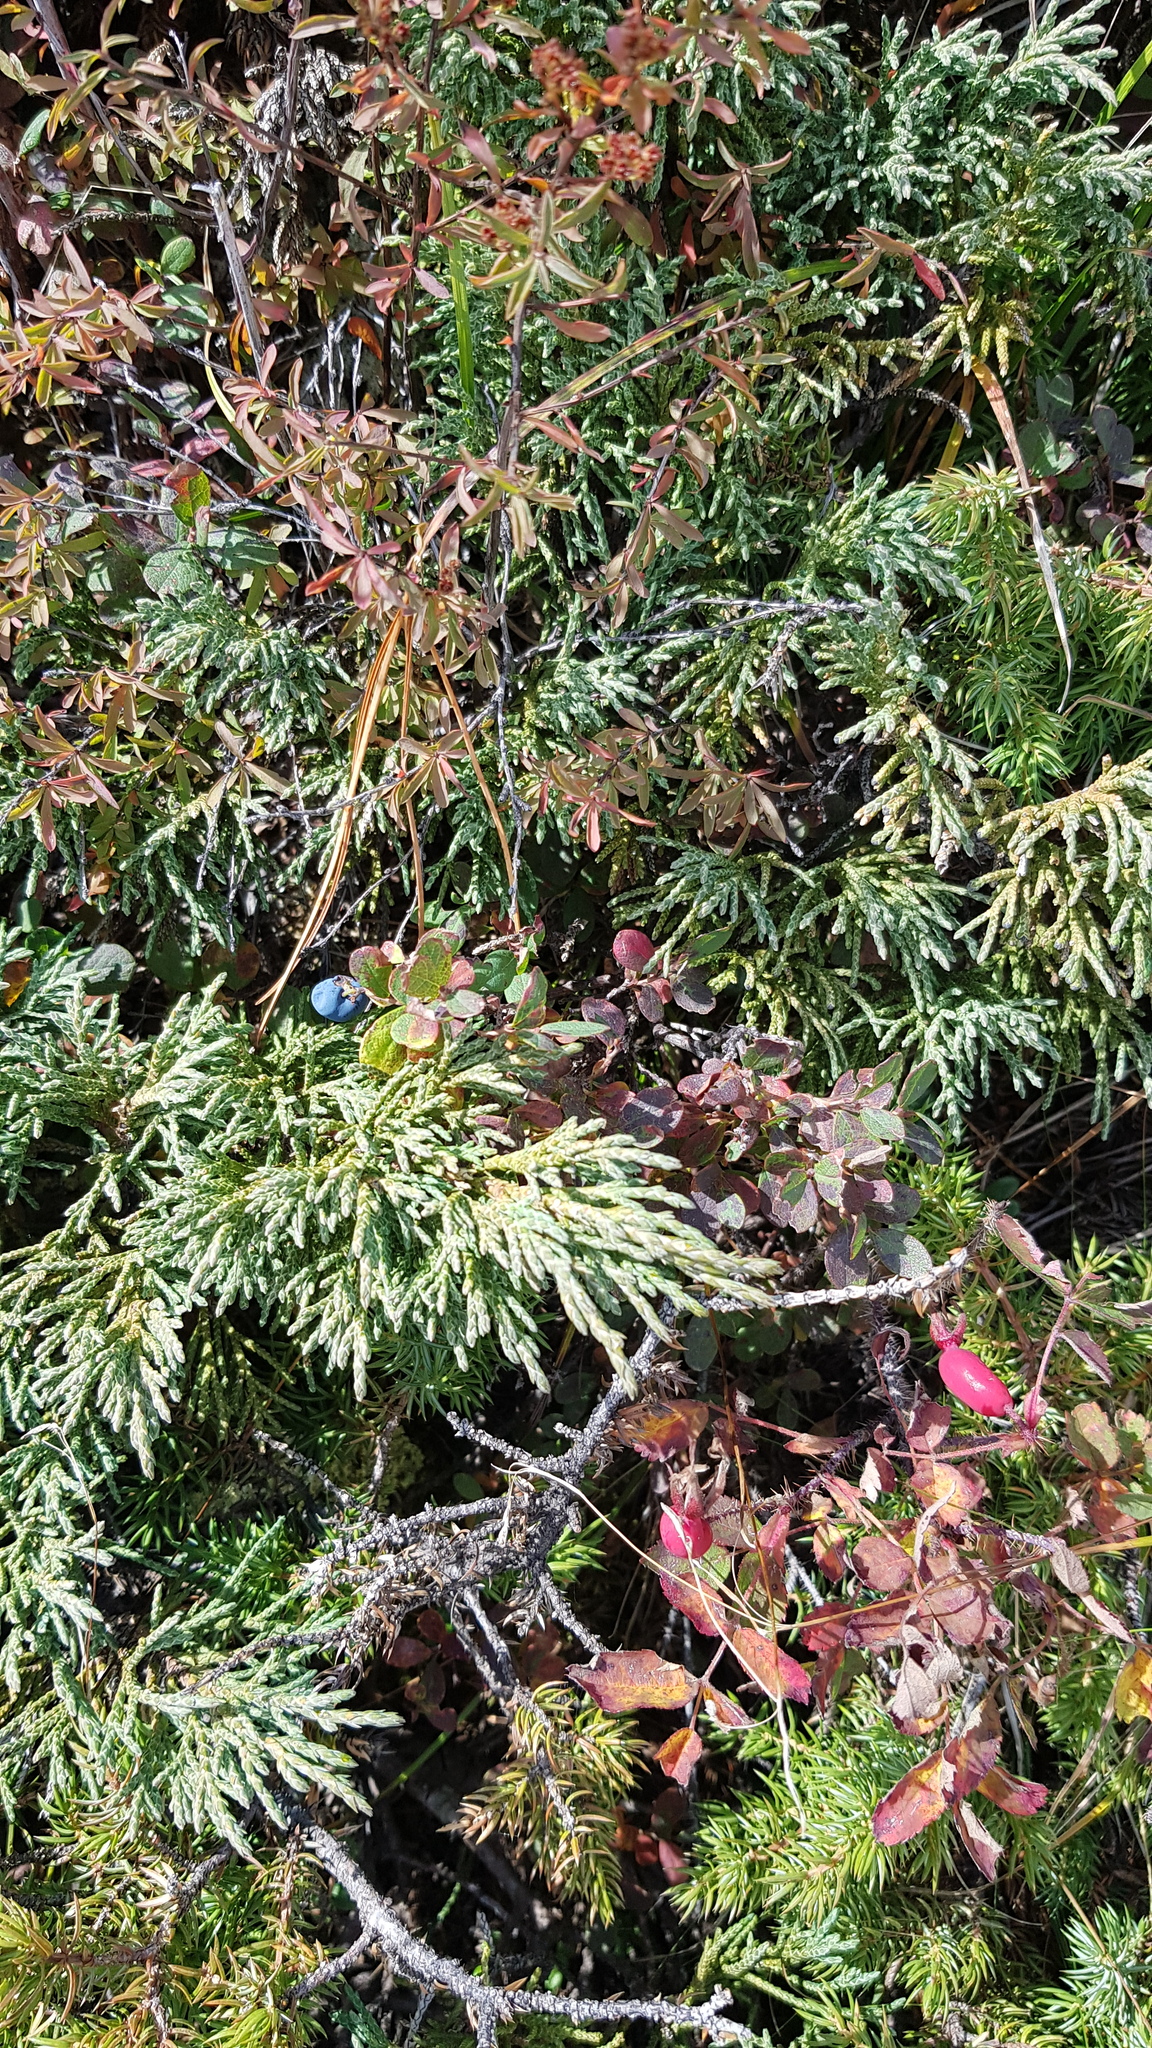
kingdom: Plantae
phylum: Tracheophyta
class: Pinopsida
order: Pinales
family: Cupressaceae
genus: Juniperus
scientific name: Juniperus pseudosabina
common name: Turkestan juniper
